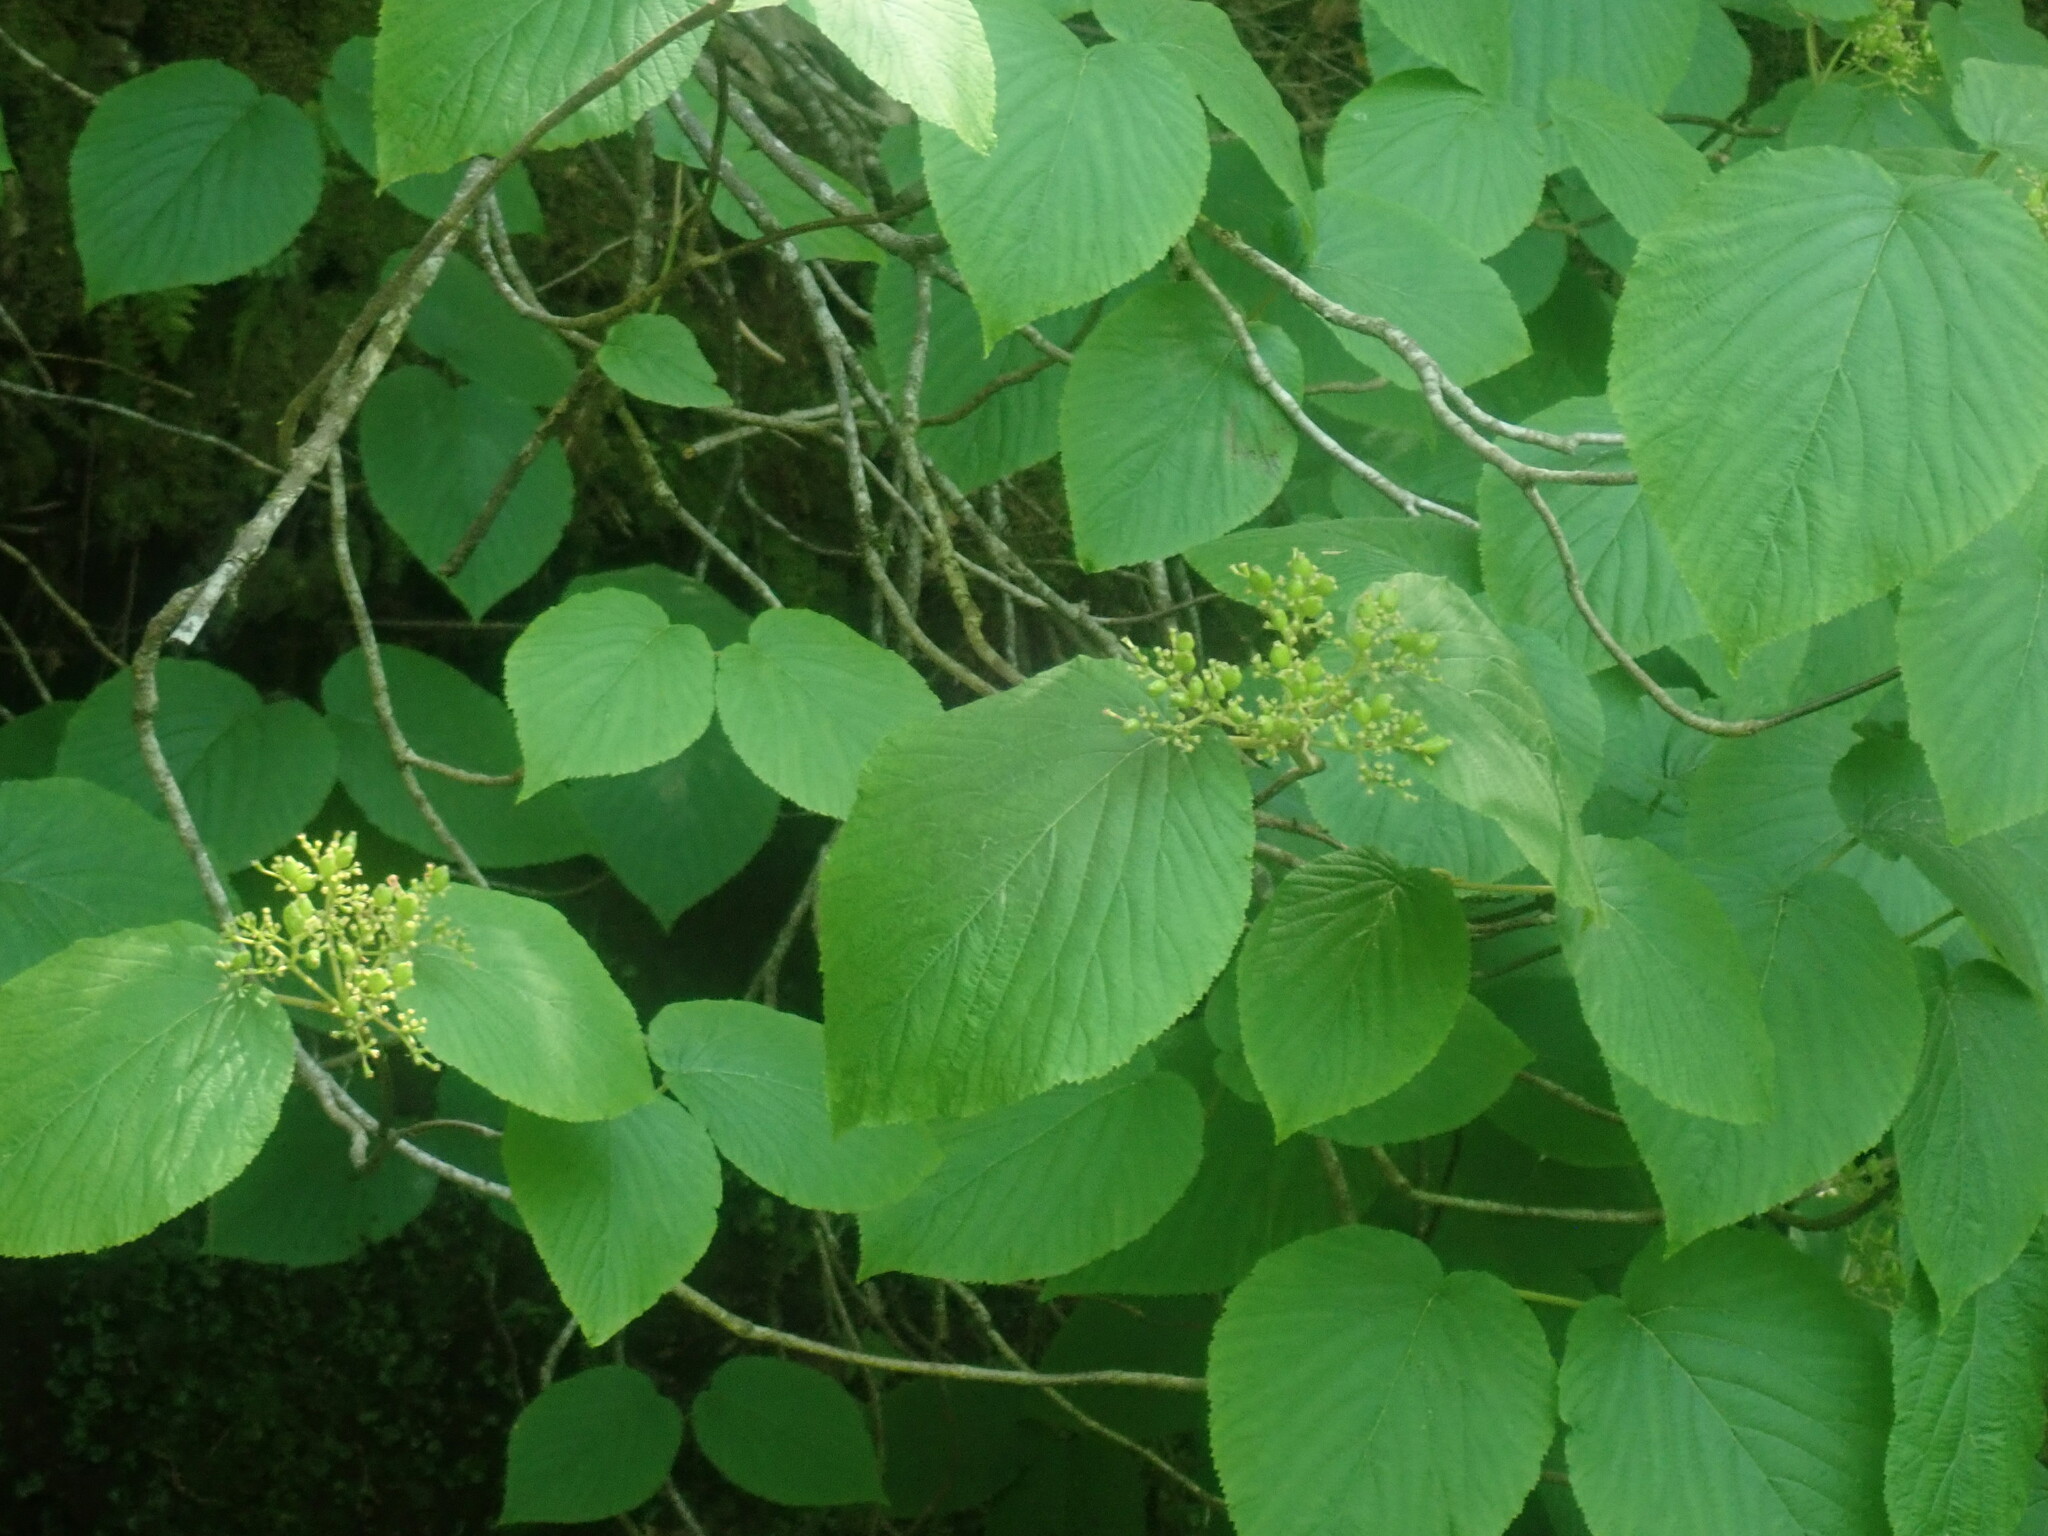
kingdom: Plantae
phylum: Tracheophyta
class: Magnoliopsida
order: Dipsacales
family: Viburnaceae
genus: Viburnum
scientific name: Viburnum lantanoides
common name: Hobblebush
